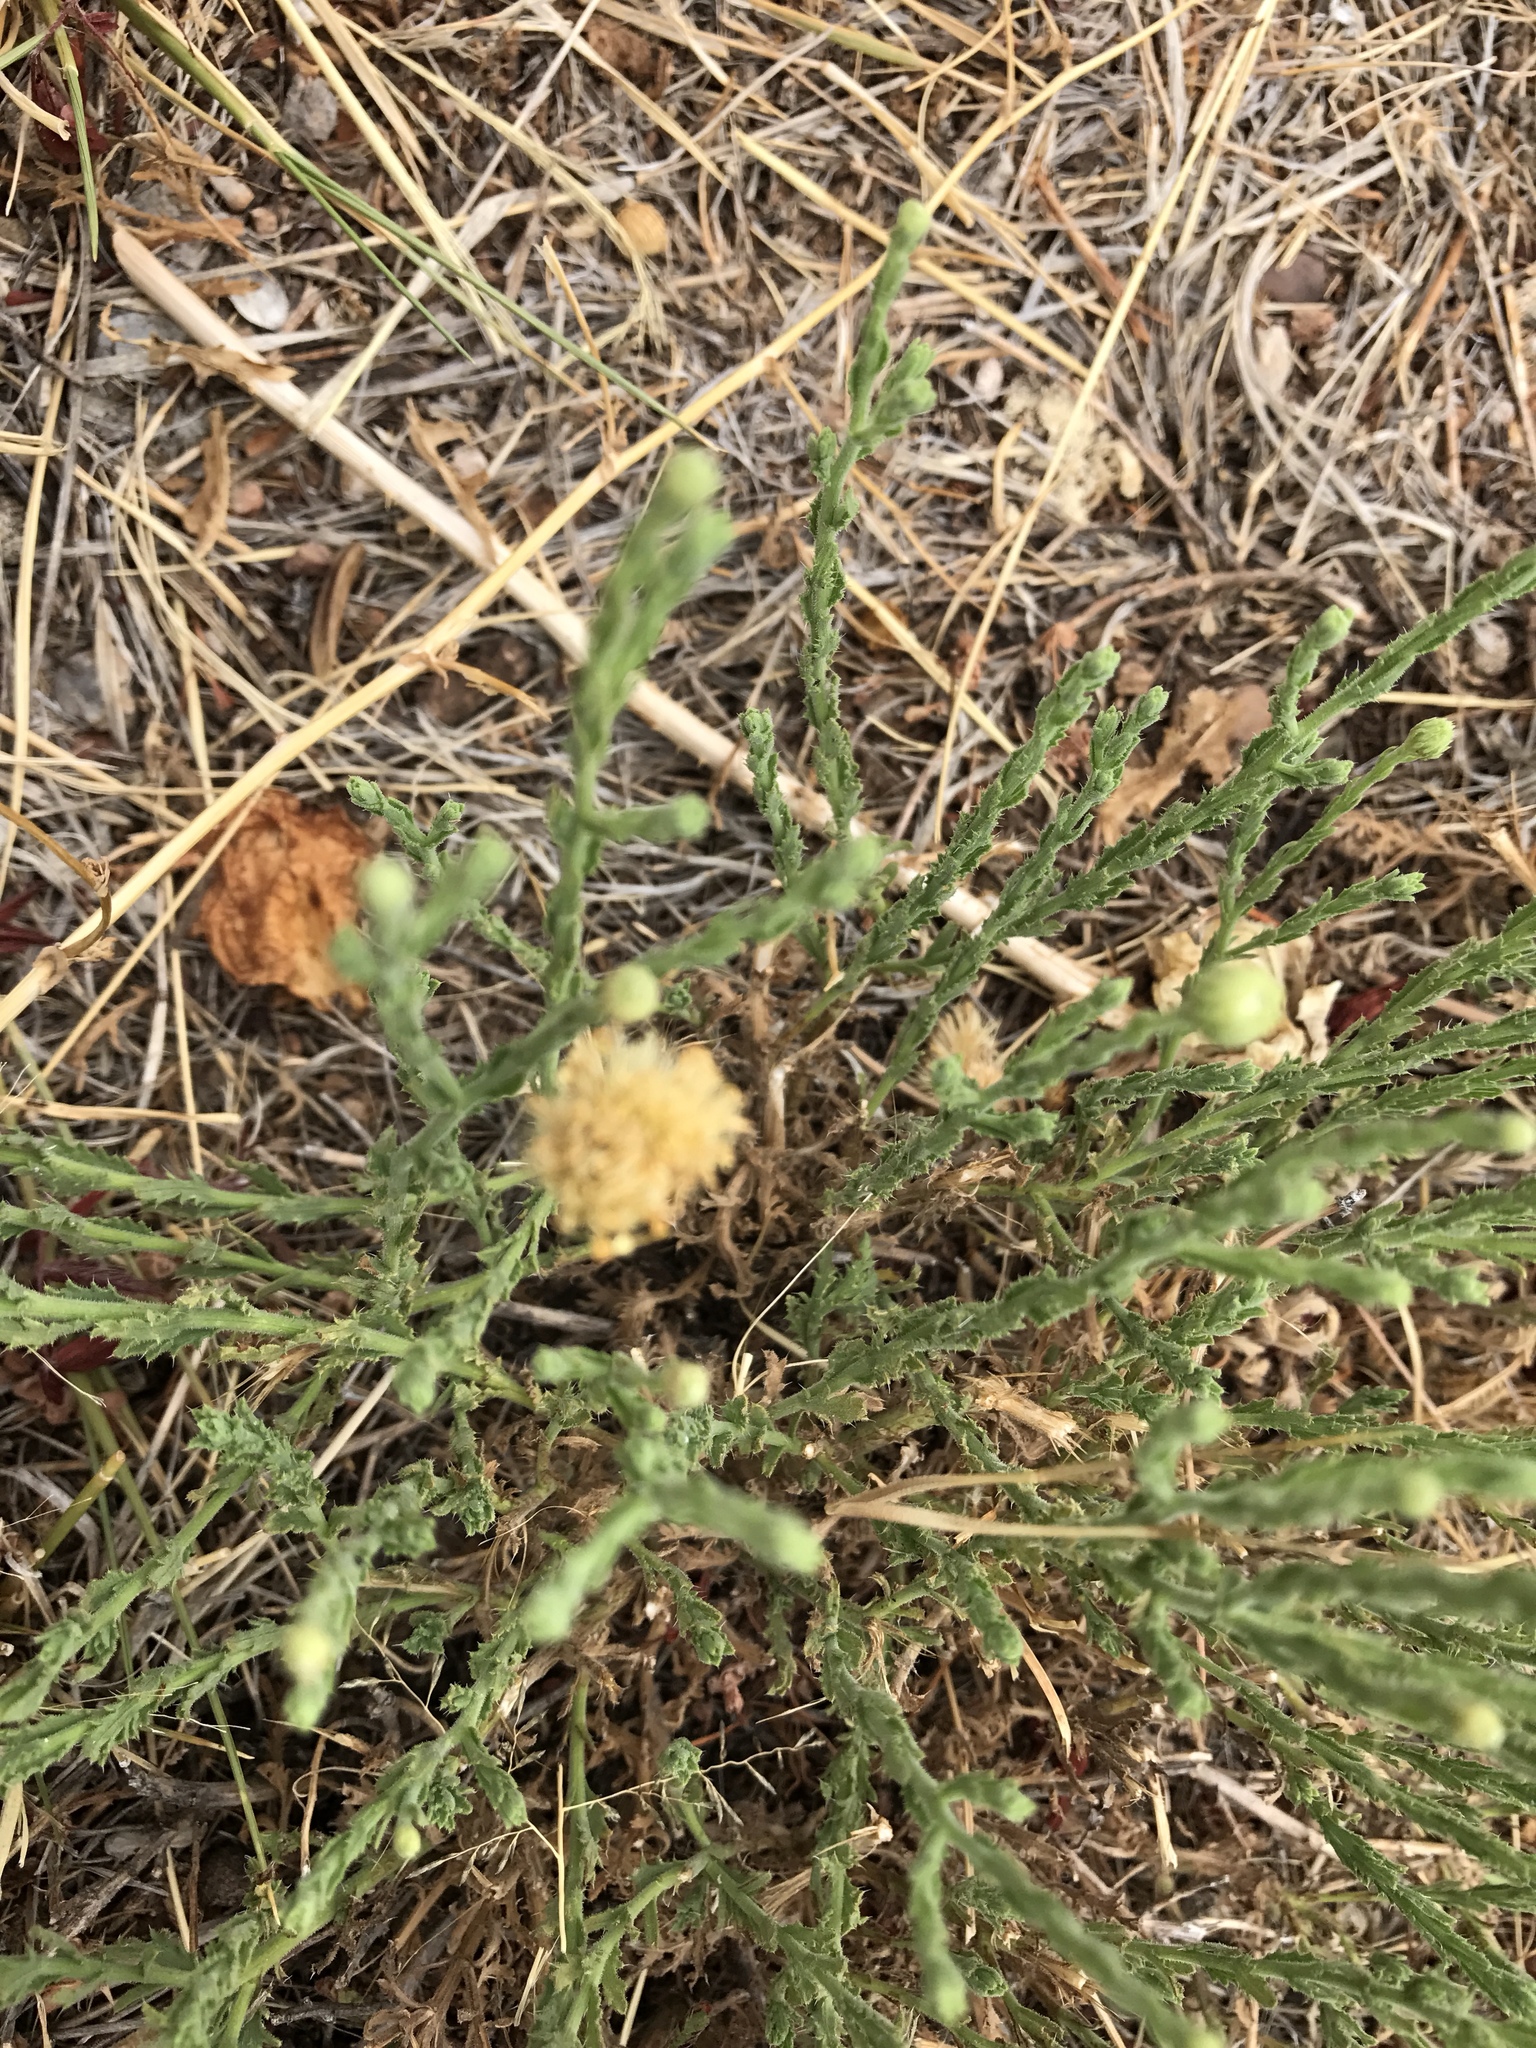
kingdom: Plantae
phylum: Tracheophyta
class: Magnoliopsida
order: Asterales
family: Asteraceae
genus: Xanthisma
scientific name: Xanthisma gracile
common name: Slender goldenweed
